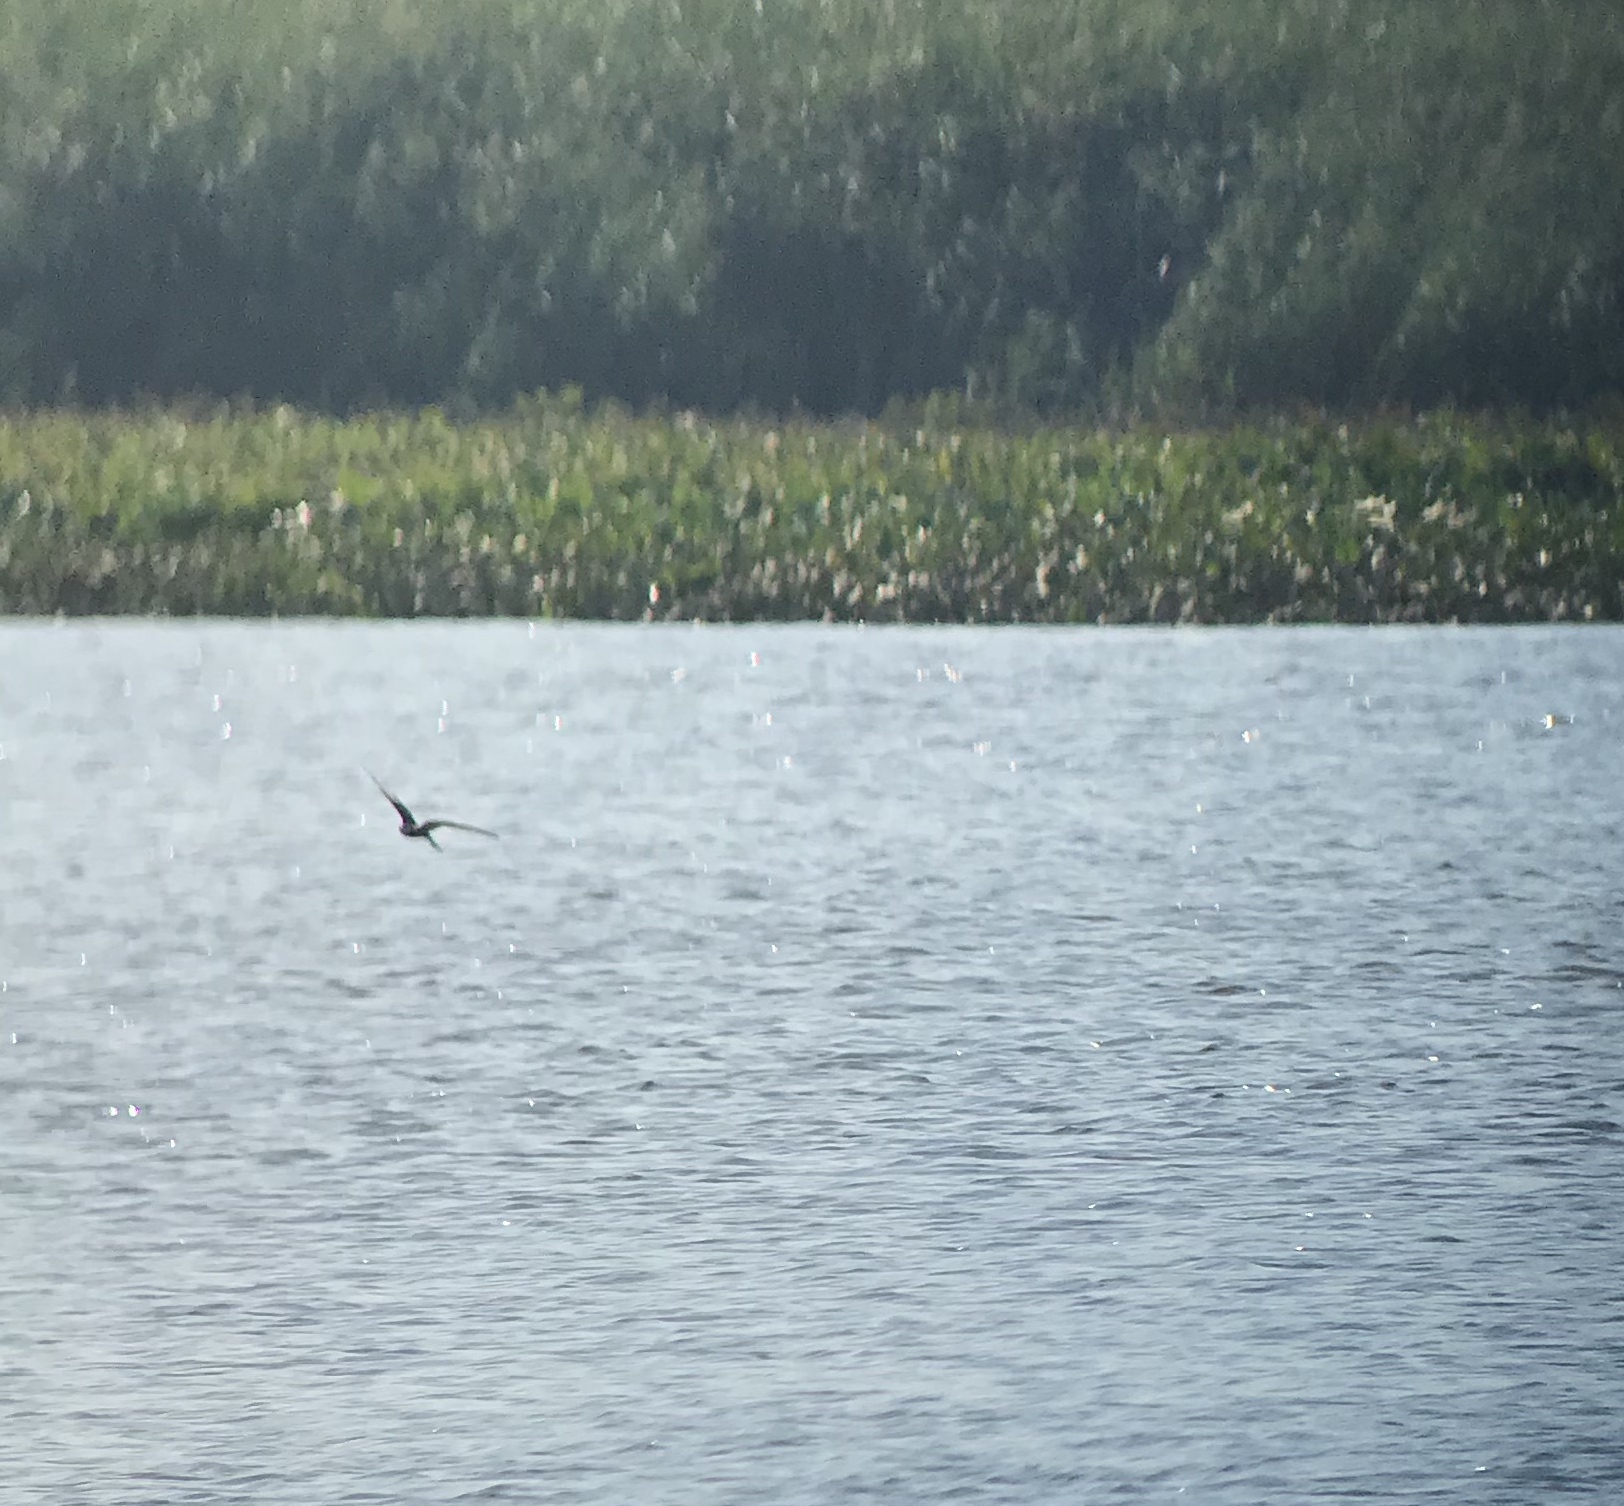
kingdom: Animalia
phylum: Chordata
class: Aves
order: Charadriiformes
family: Laridae
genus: Chlidonias
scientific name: Chlidonias niger
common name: Black tern
